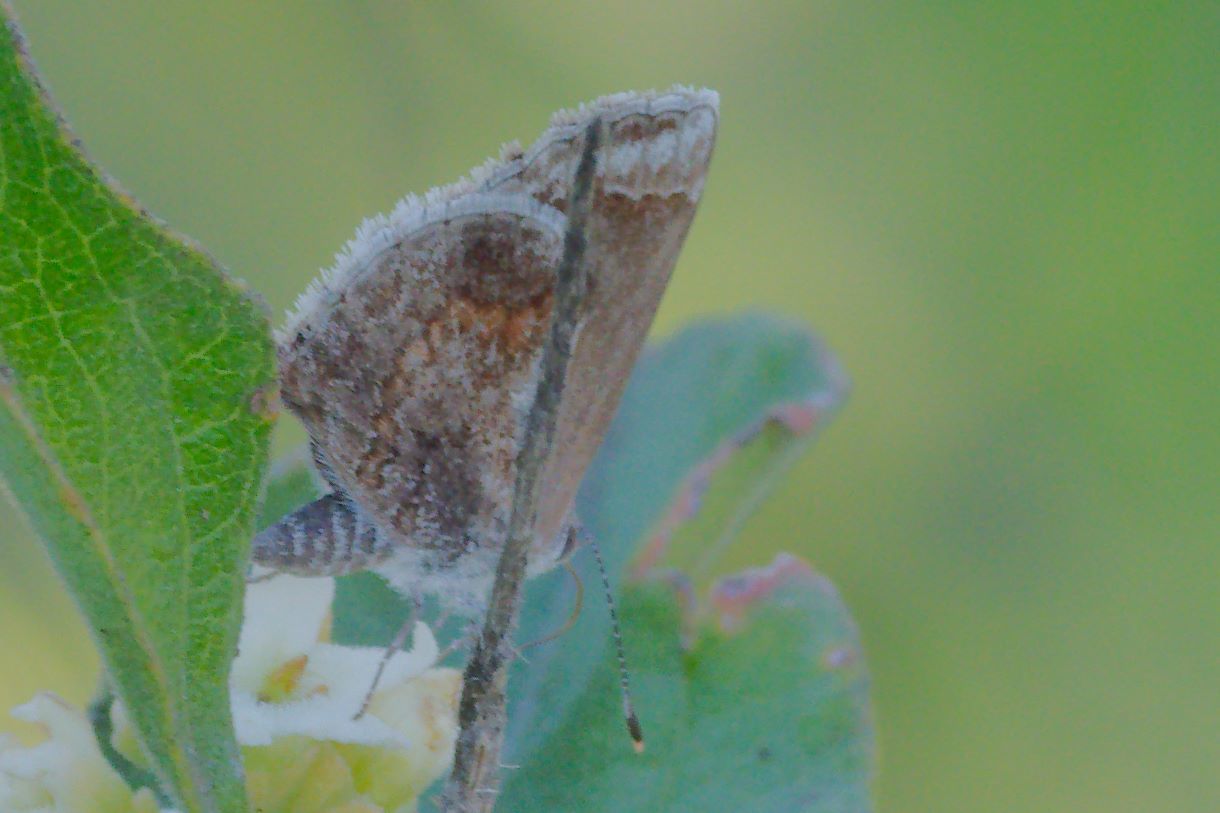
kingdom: Animalia
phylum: Arthropoda
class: Insecta
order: Lepidoptera
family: Lycaenidae
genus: Strymon
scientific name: Strymon bazochii
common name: Lantana scrub-hairstreak
